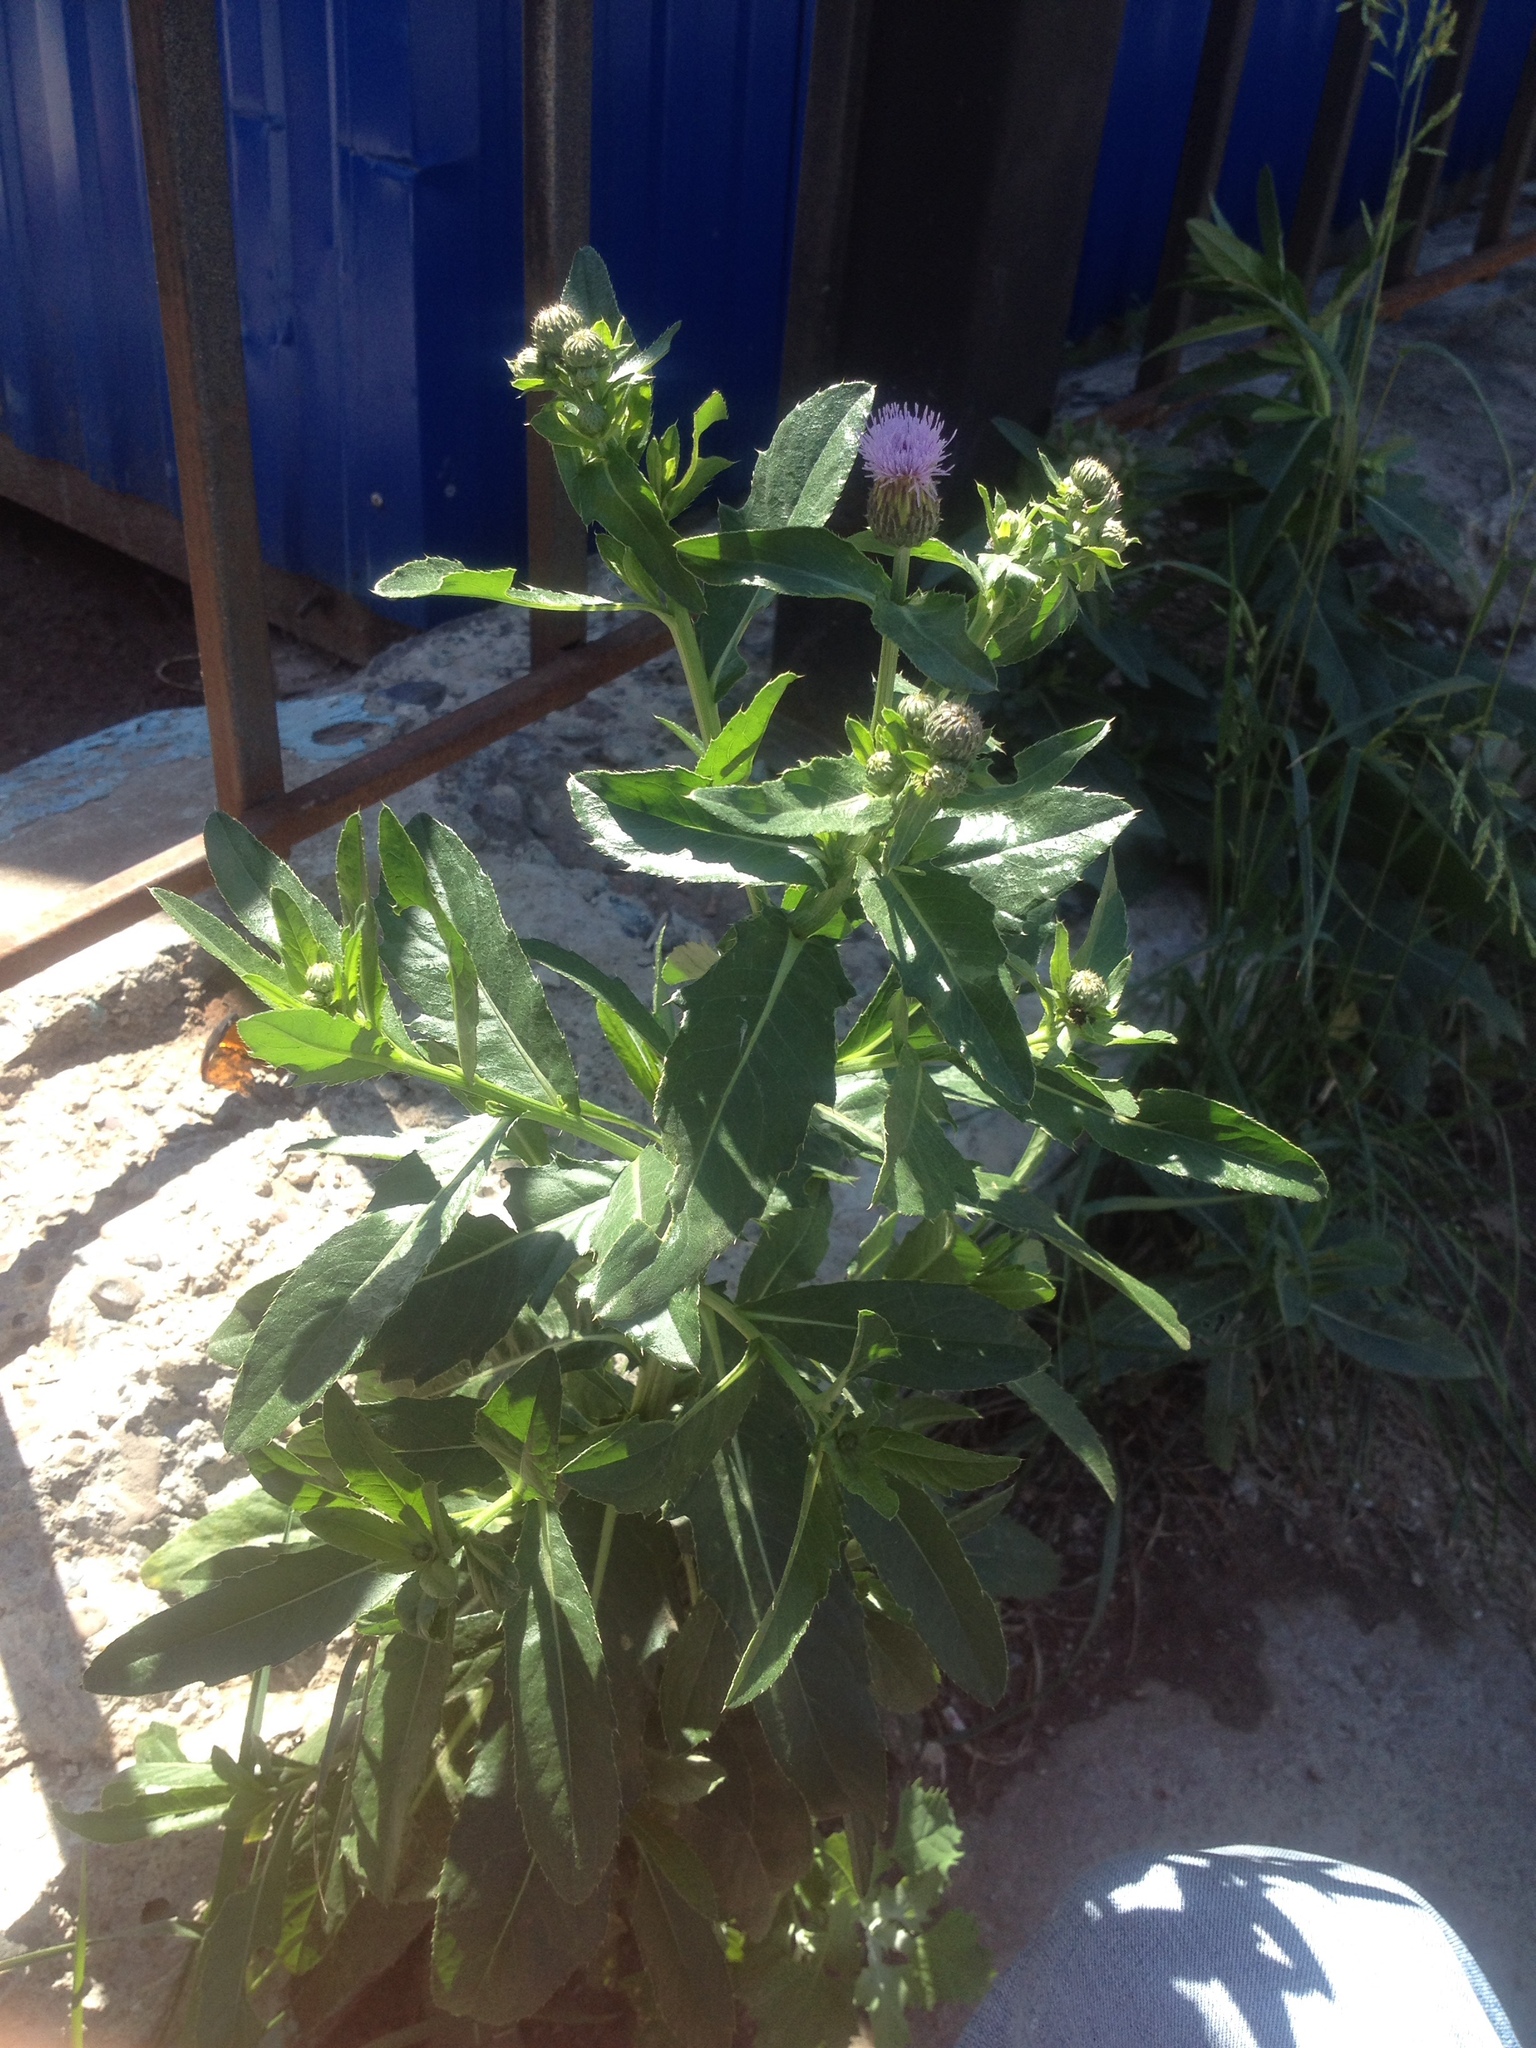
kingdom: Plantae
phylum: Tracheophyta
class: Magnoliopsida
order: Asterales
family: Asteraceae
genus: Cirsium
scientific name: Cirsium arvense
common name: Creeping thistle
